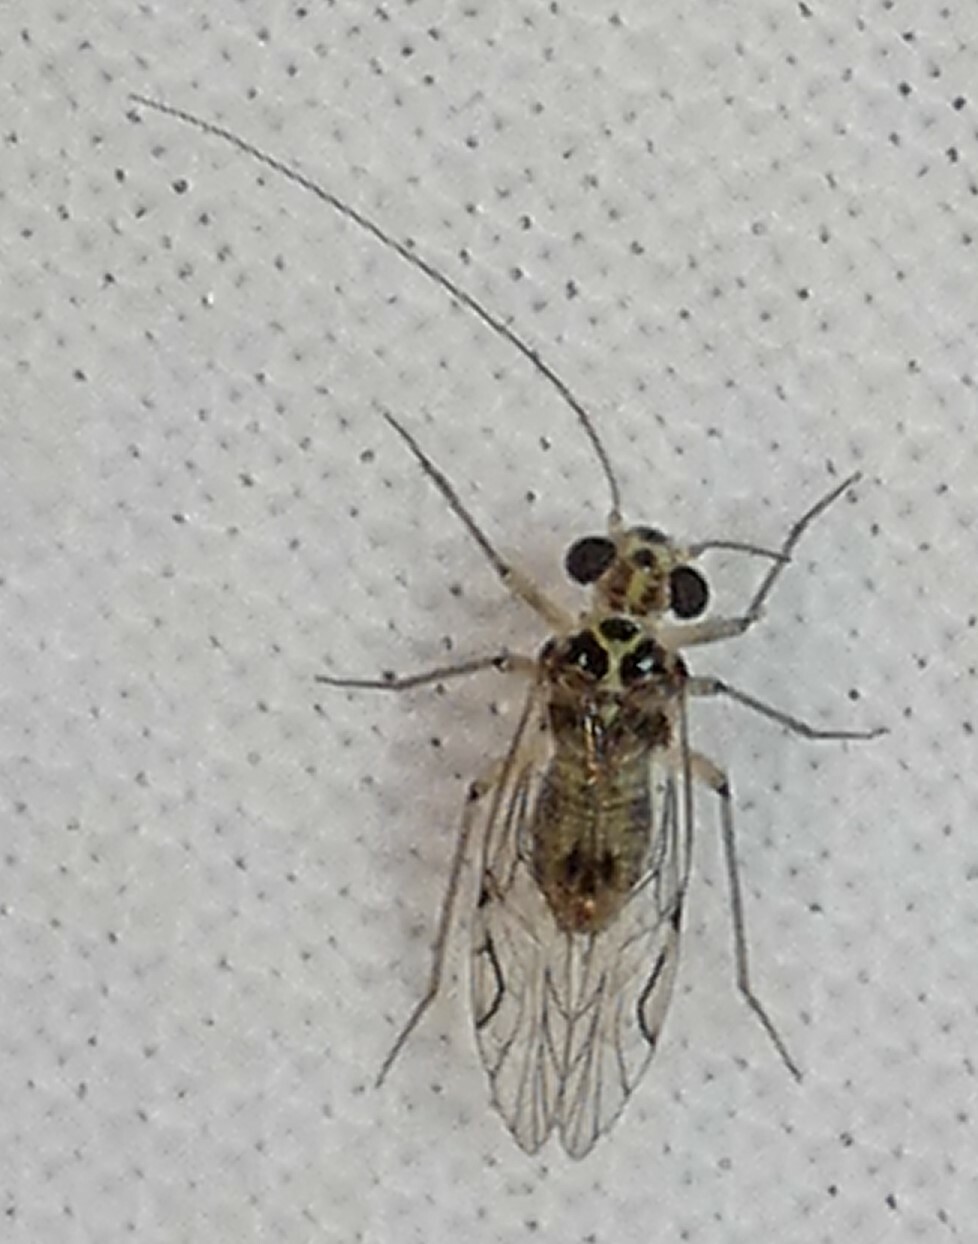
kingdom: Animalia
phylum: Arthropoda
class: Insecta
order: Psocodea
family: Psocidae
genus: Metylophorus
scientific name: Metylophorus purus
